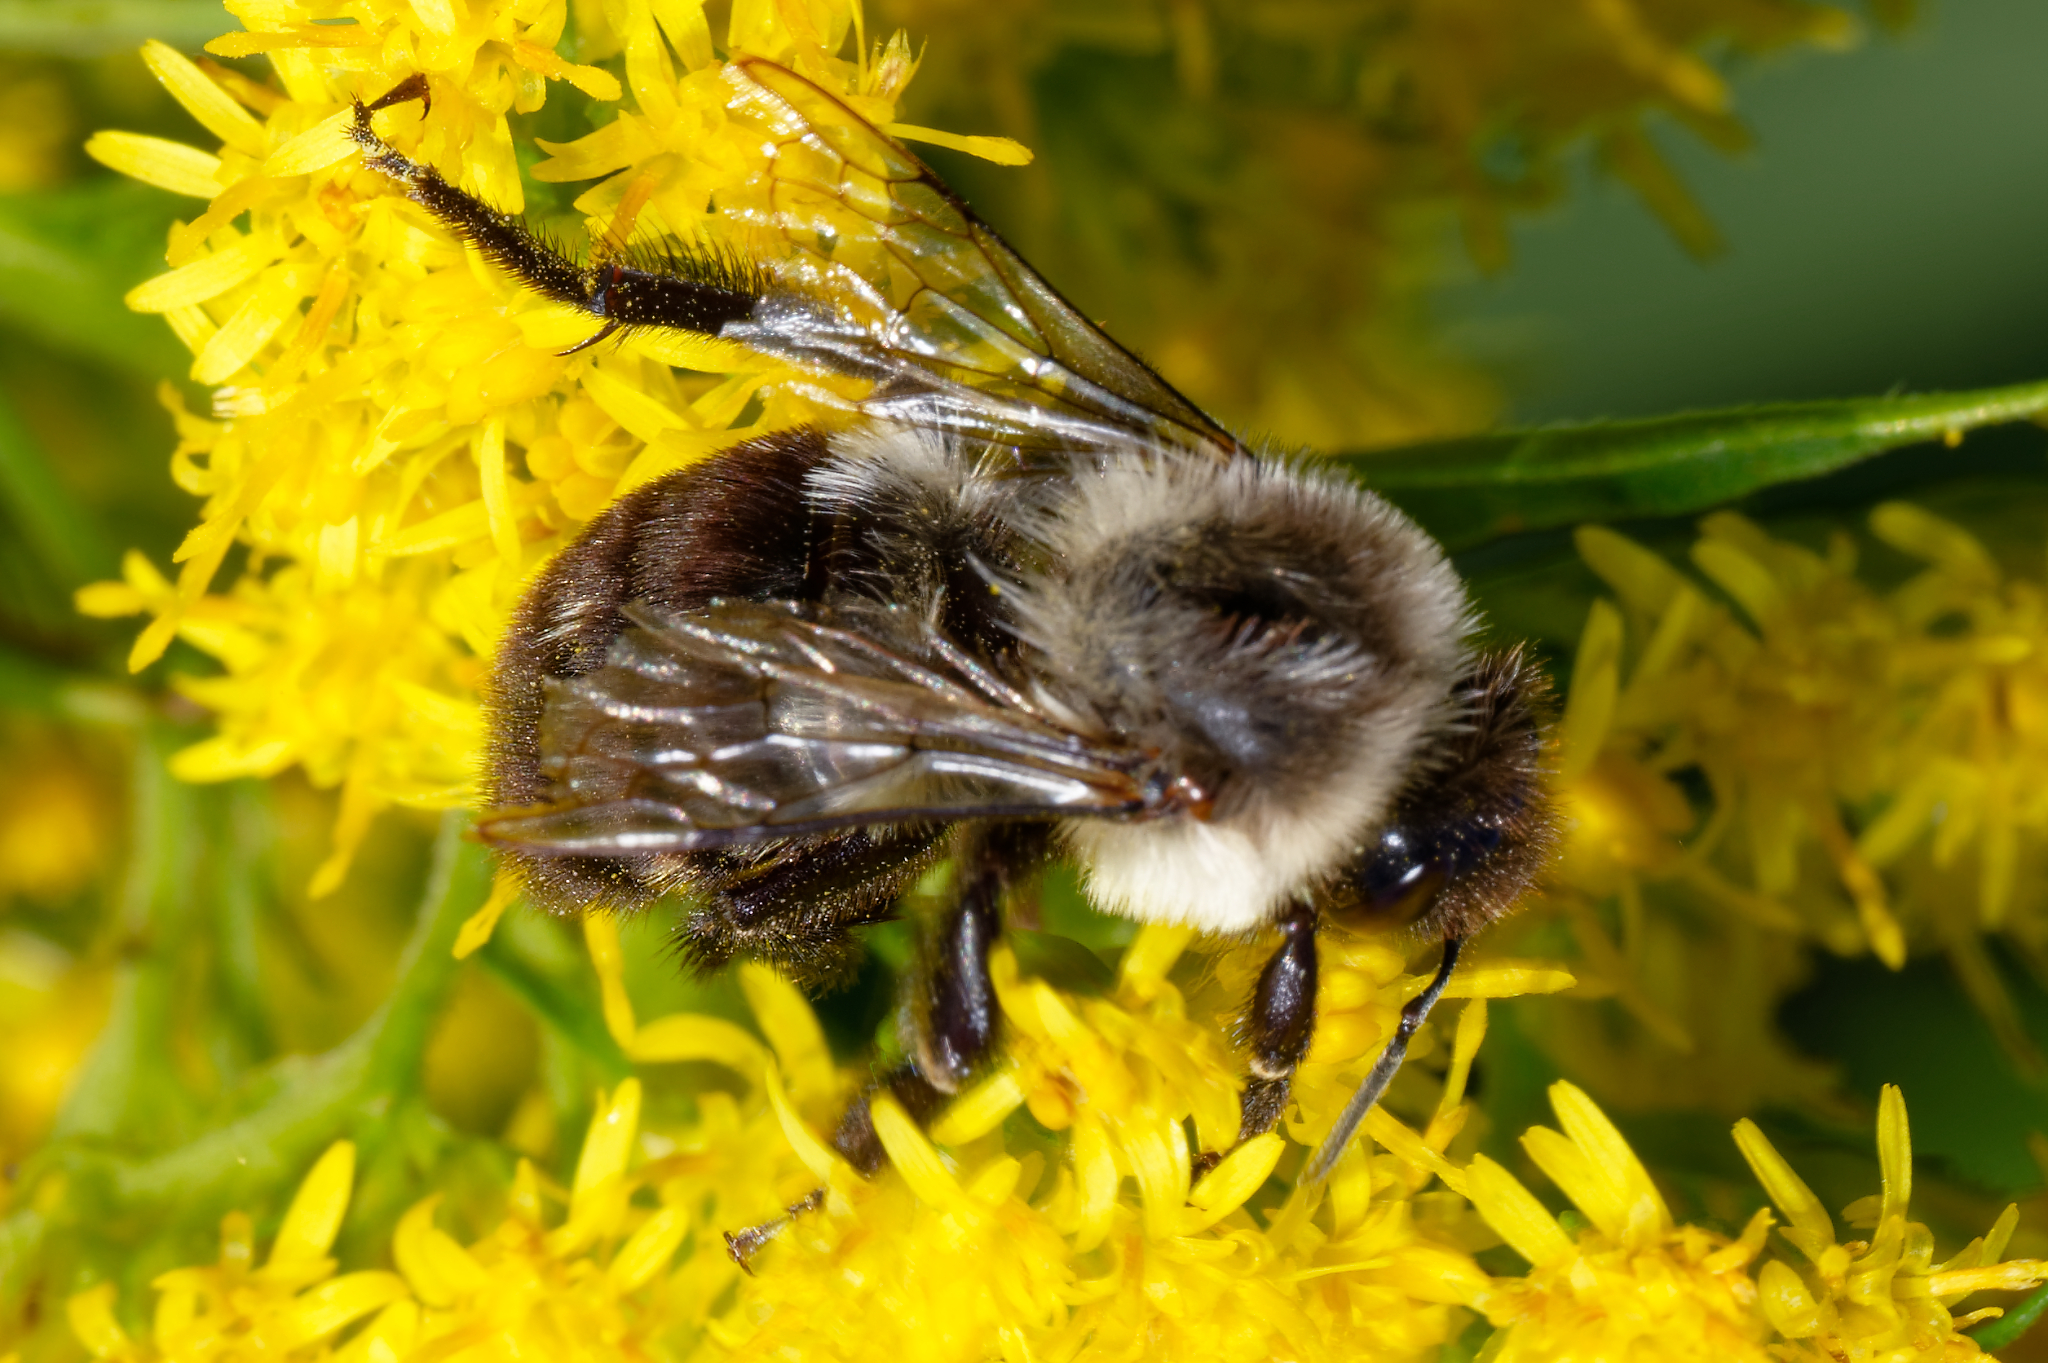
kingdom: Animalia
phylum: Arthropoda
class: Insecta
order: Hymenoptera
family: Apidae
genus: Bombus
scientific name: Bombus impatiens
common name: Common eastern bumble bee
